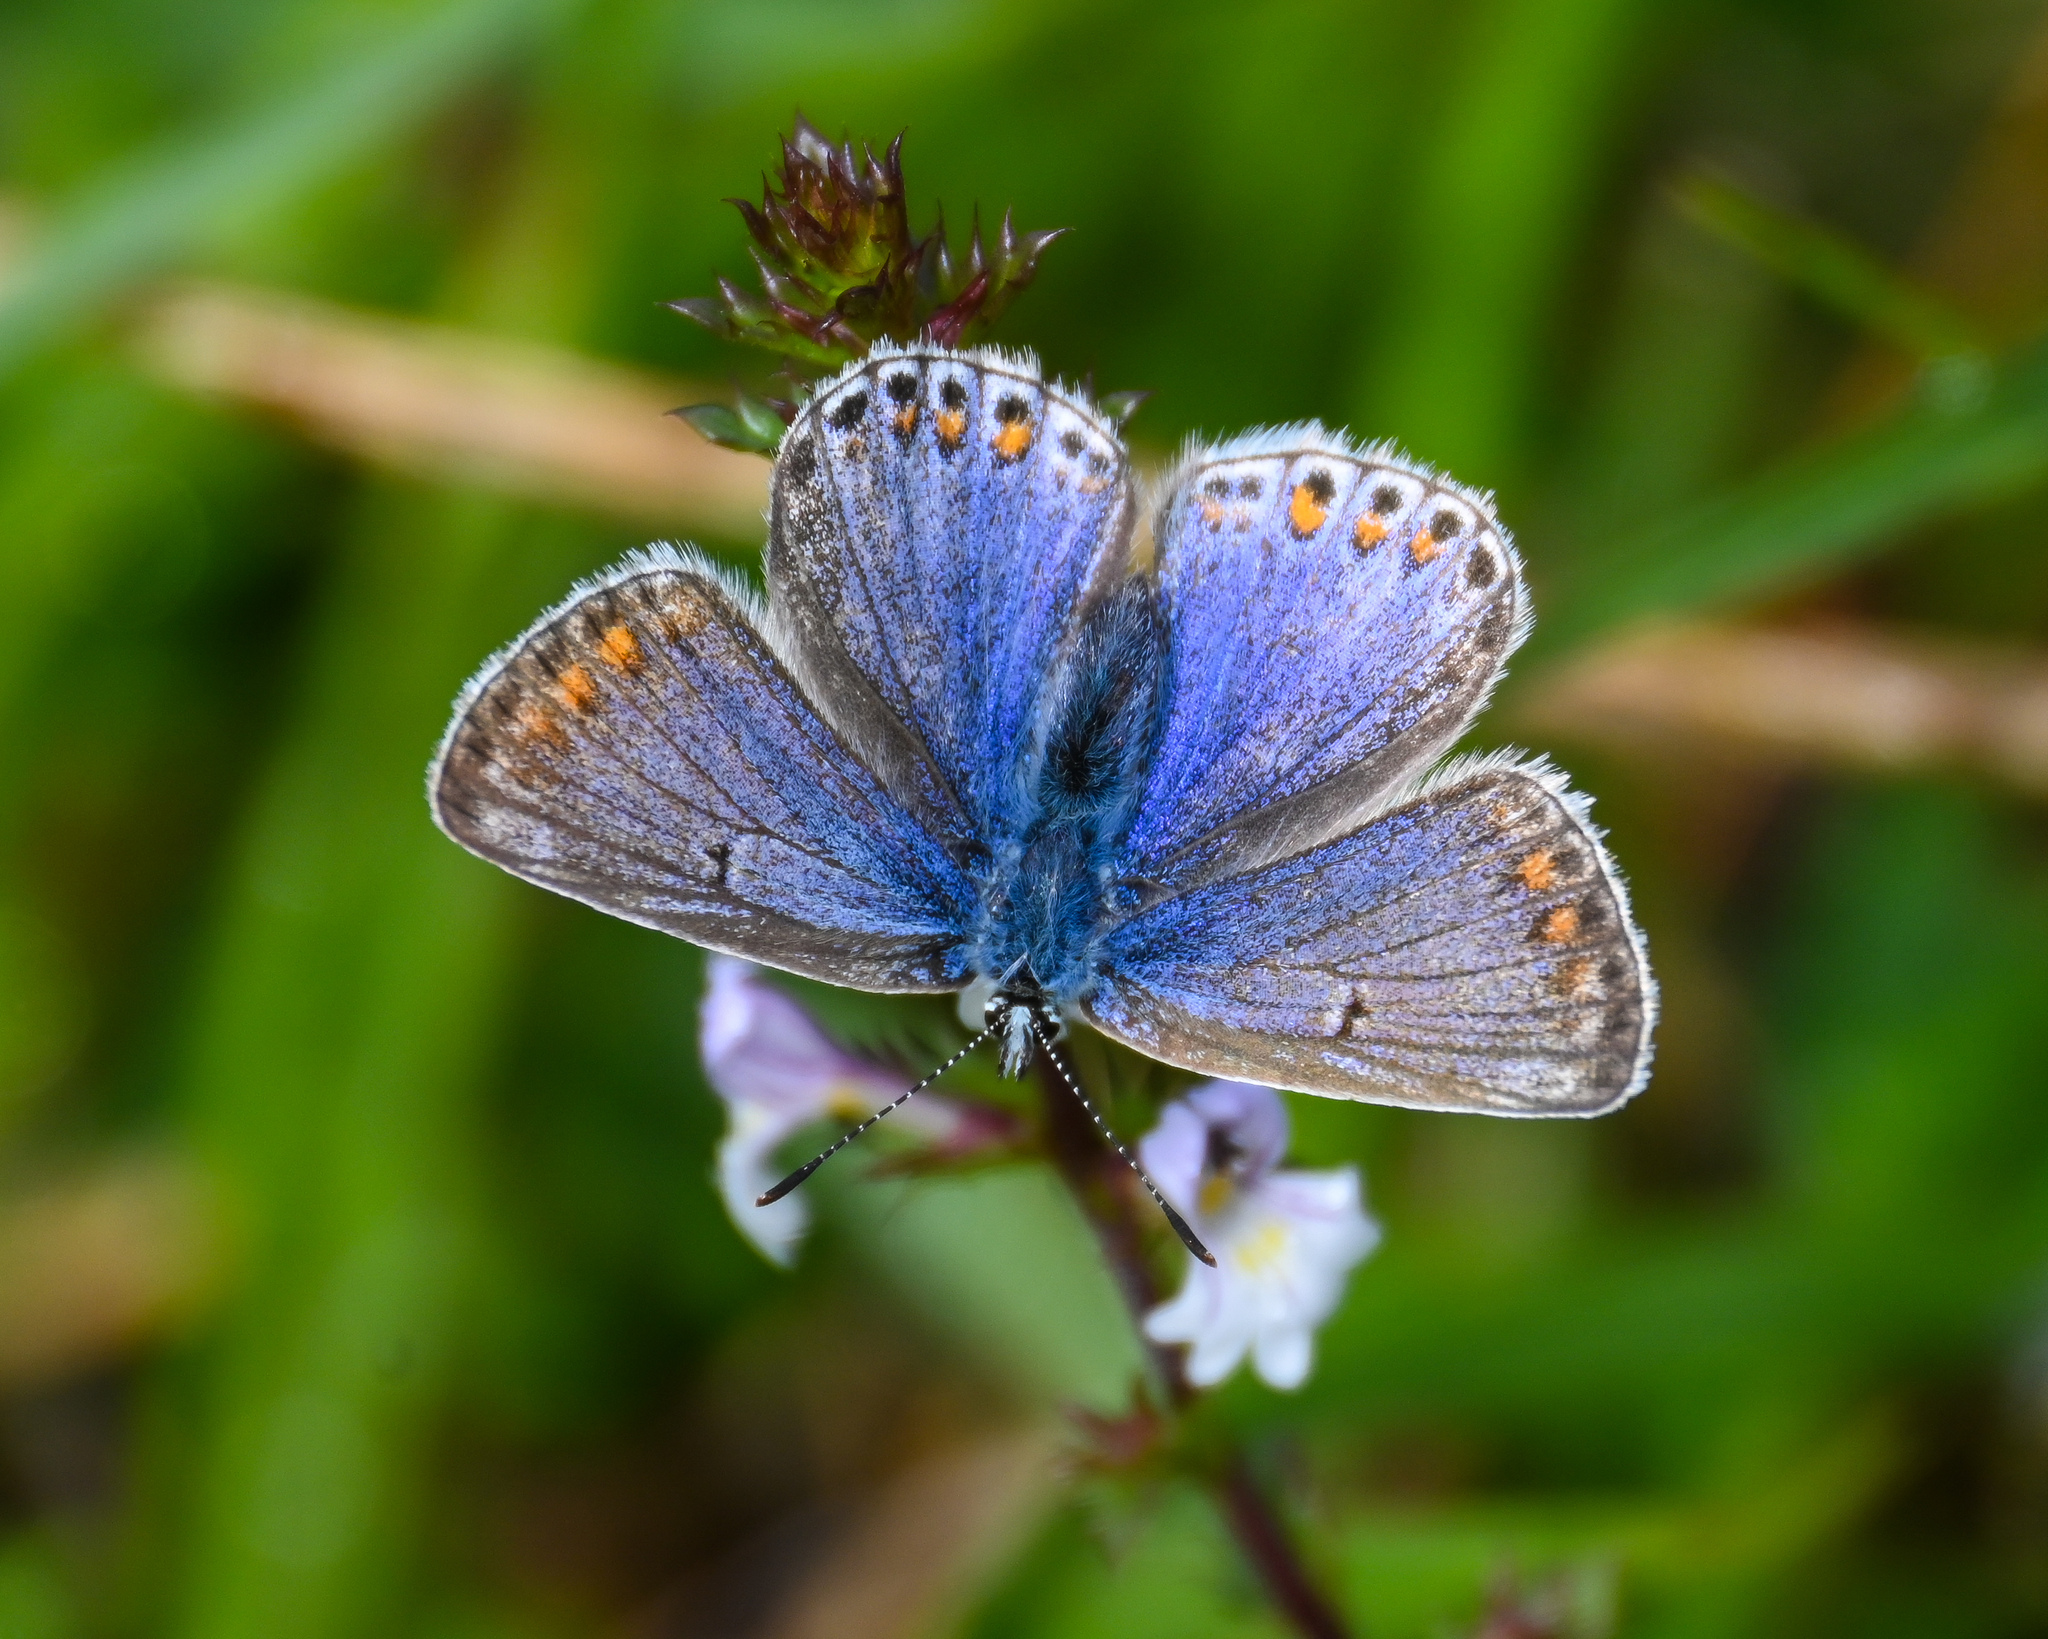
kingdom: Animalia
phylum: Arthropoda
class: Insecta
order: Lepidoptera
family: Lycaenidae
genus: Polyommatus
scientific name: Polyommatus icarus
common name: Common blue
